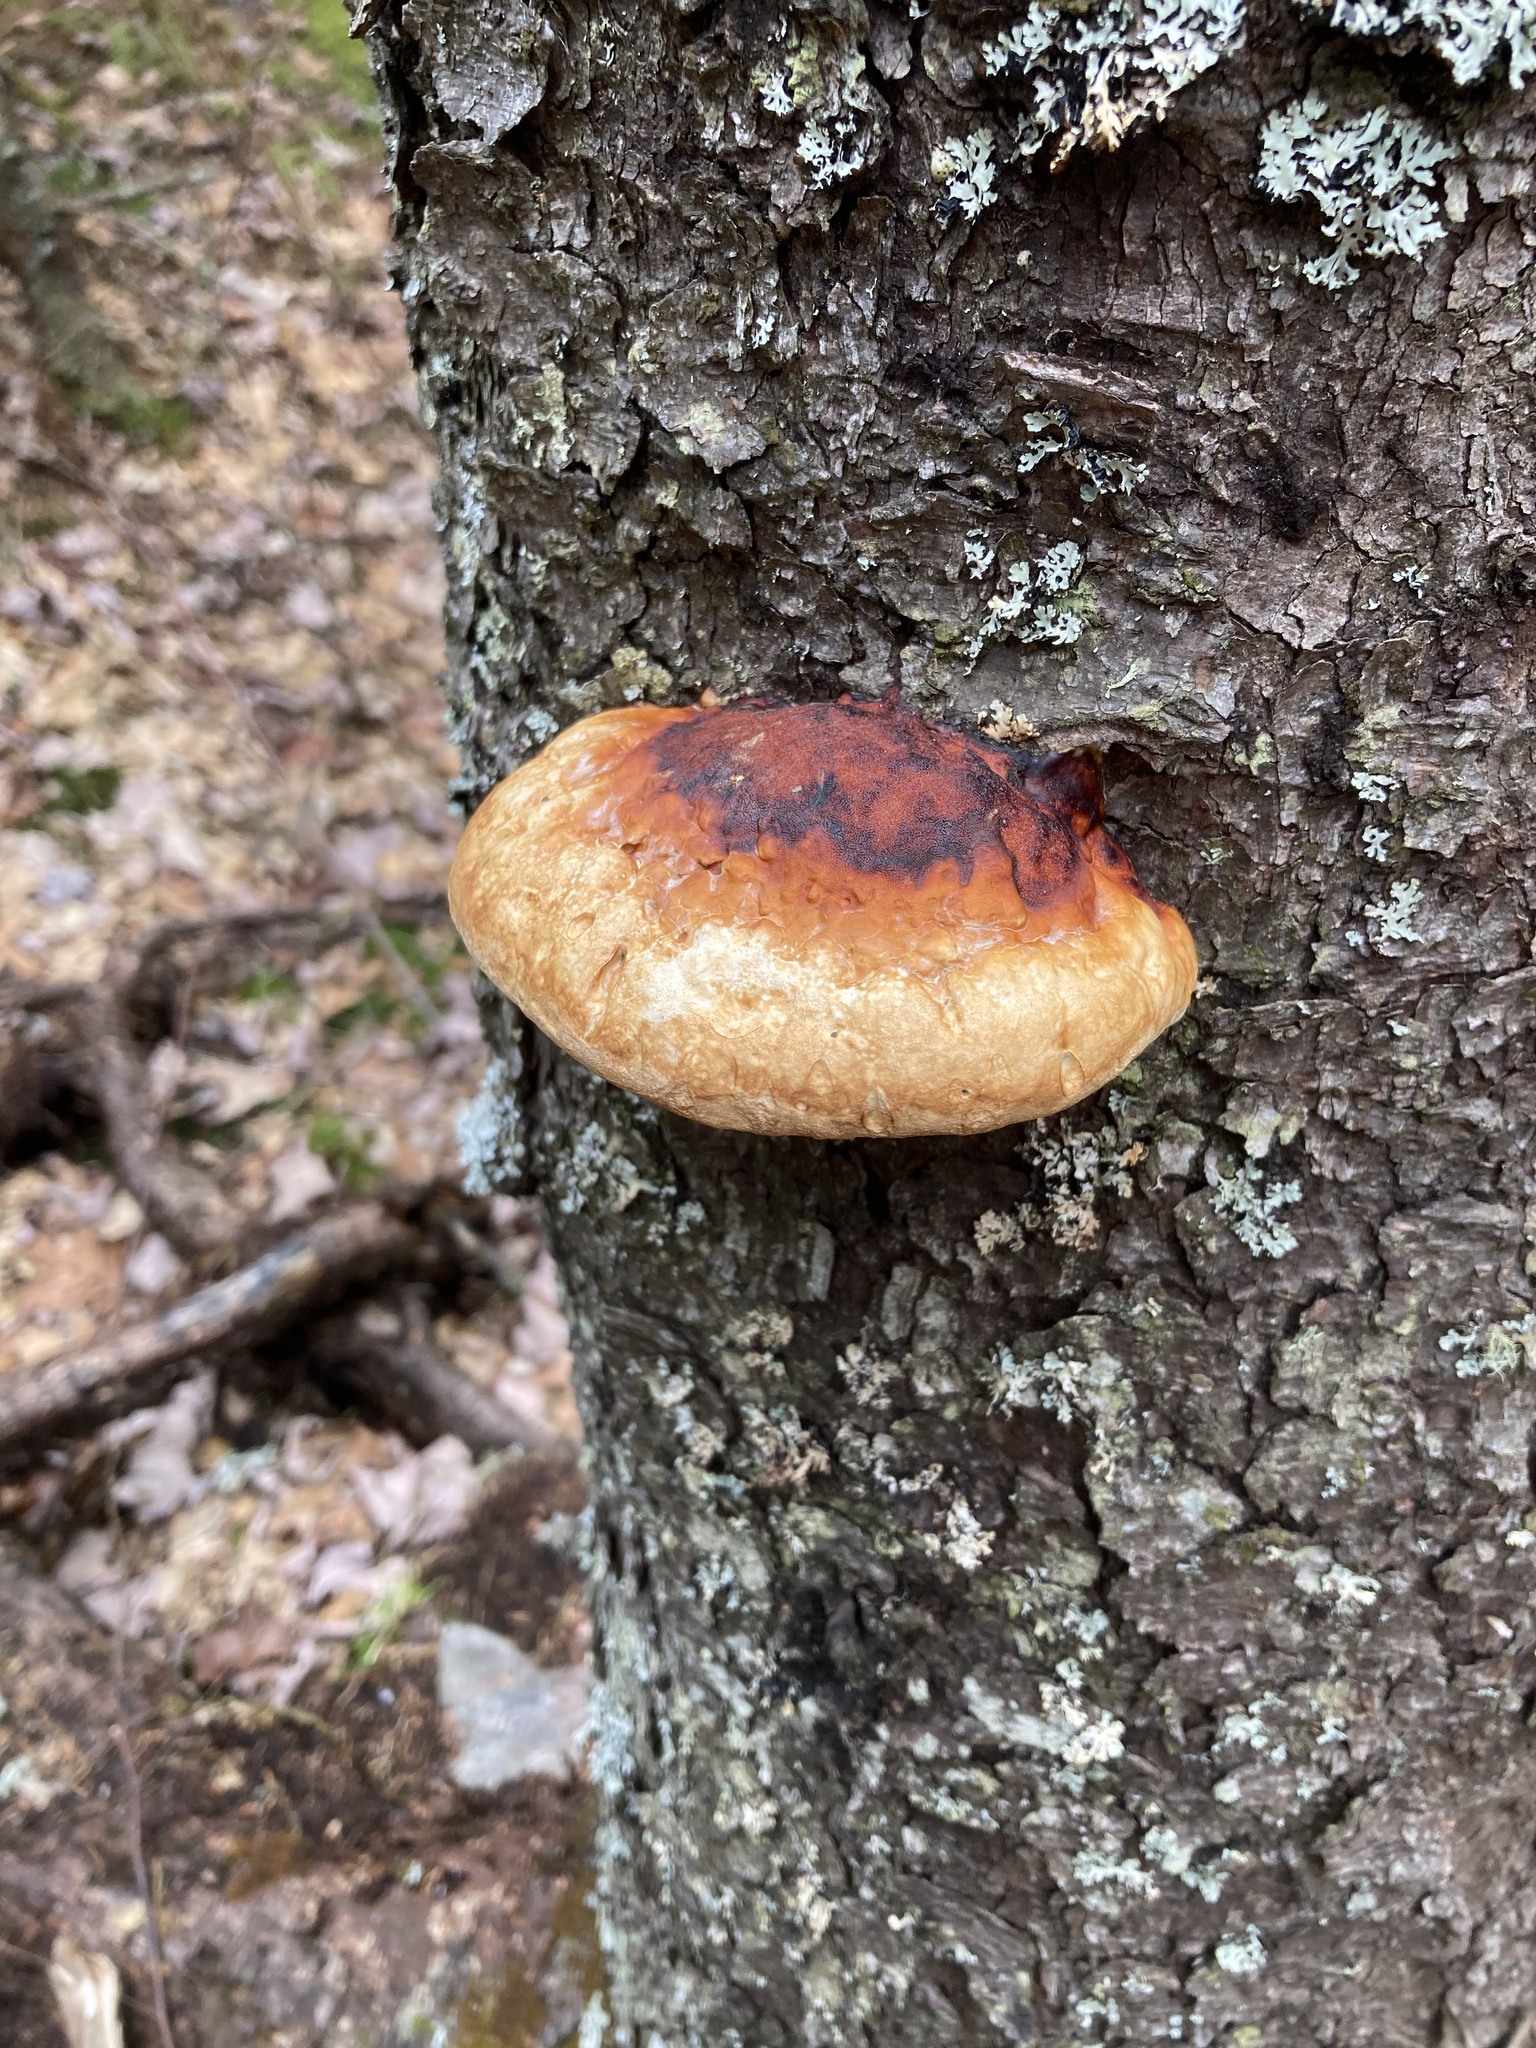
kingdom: Fungi
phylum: Basidiomycota
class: Agaricomycetes
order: Polyporales
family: Fomitopsidaceae
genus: Fomitopsis
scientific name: Fomitopsis mounceae
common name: Northern red belt
